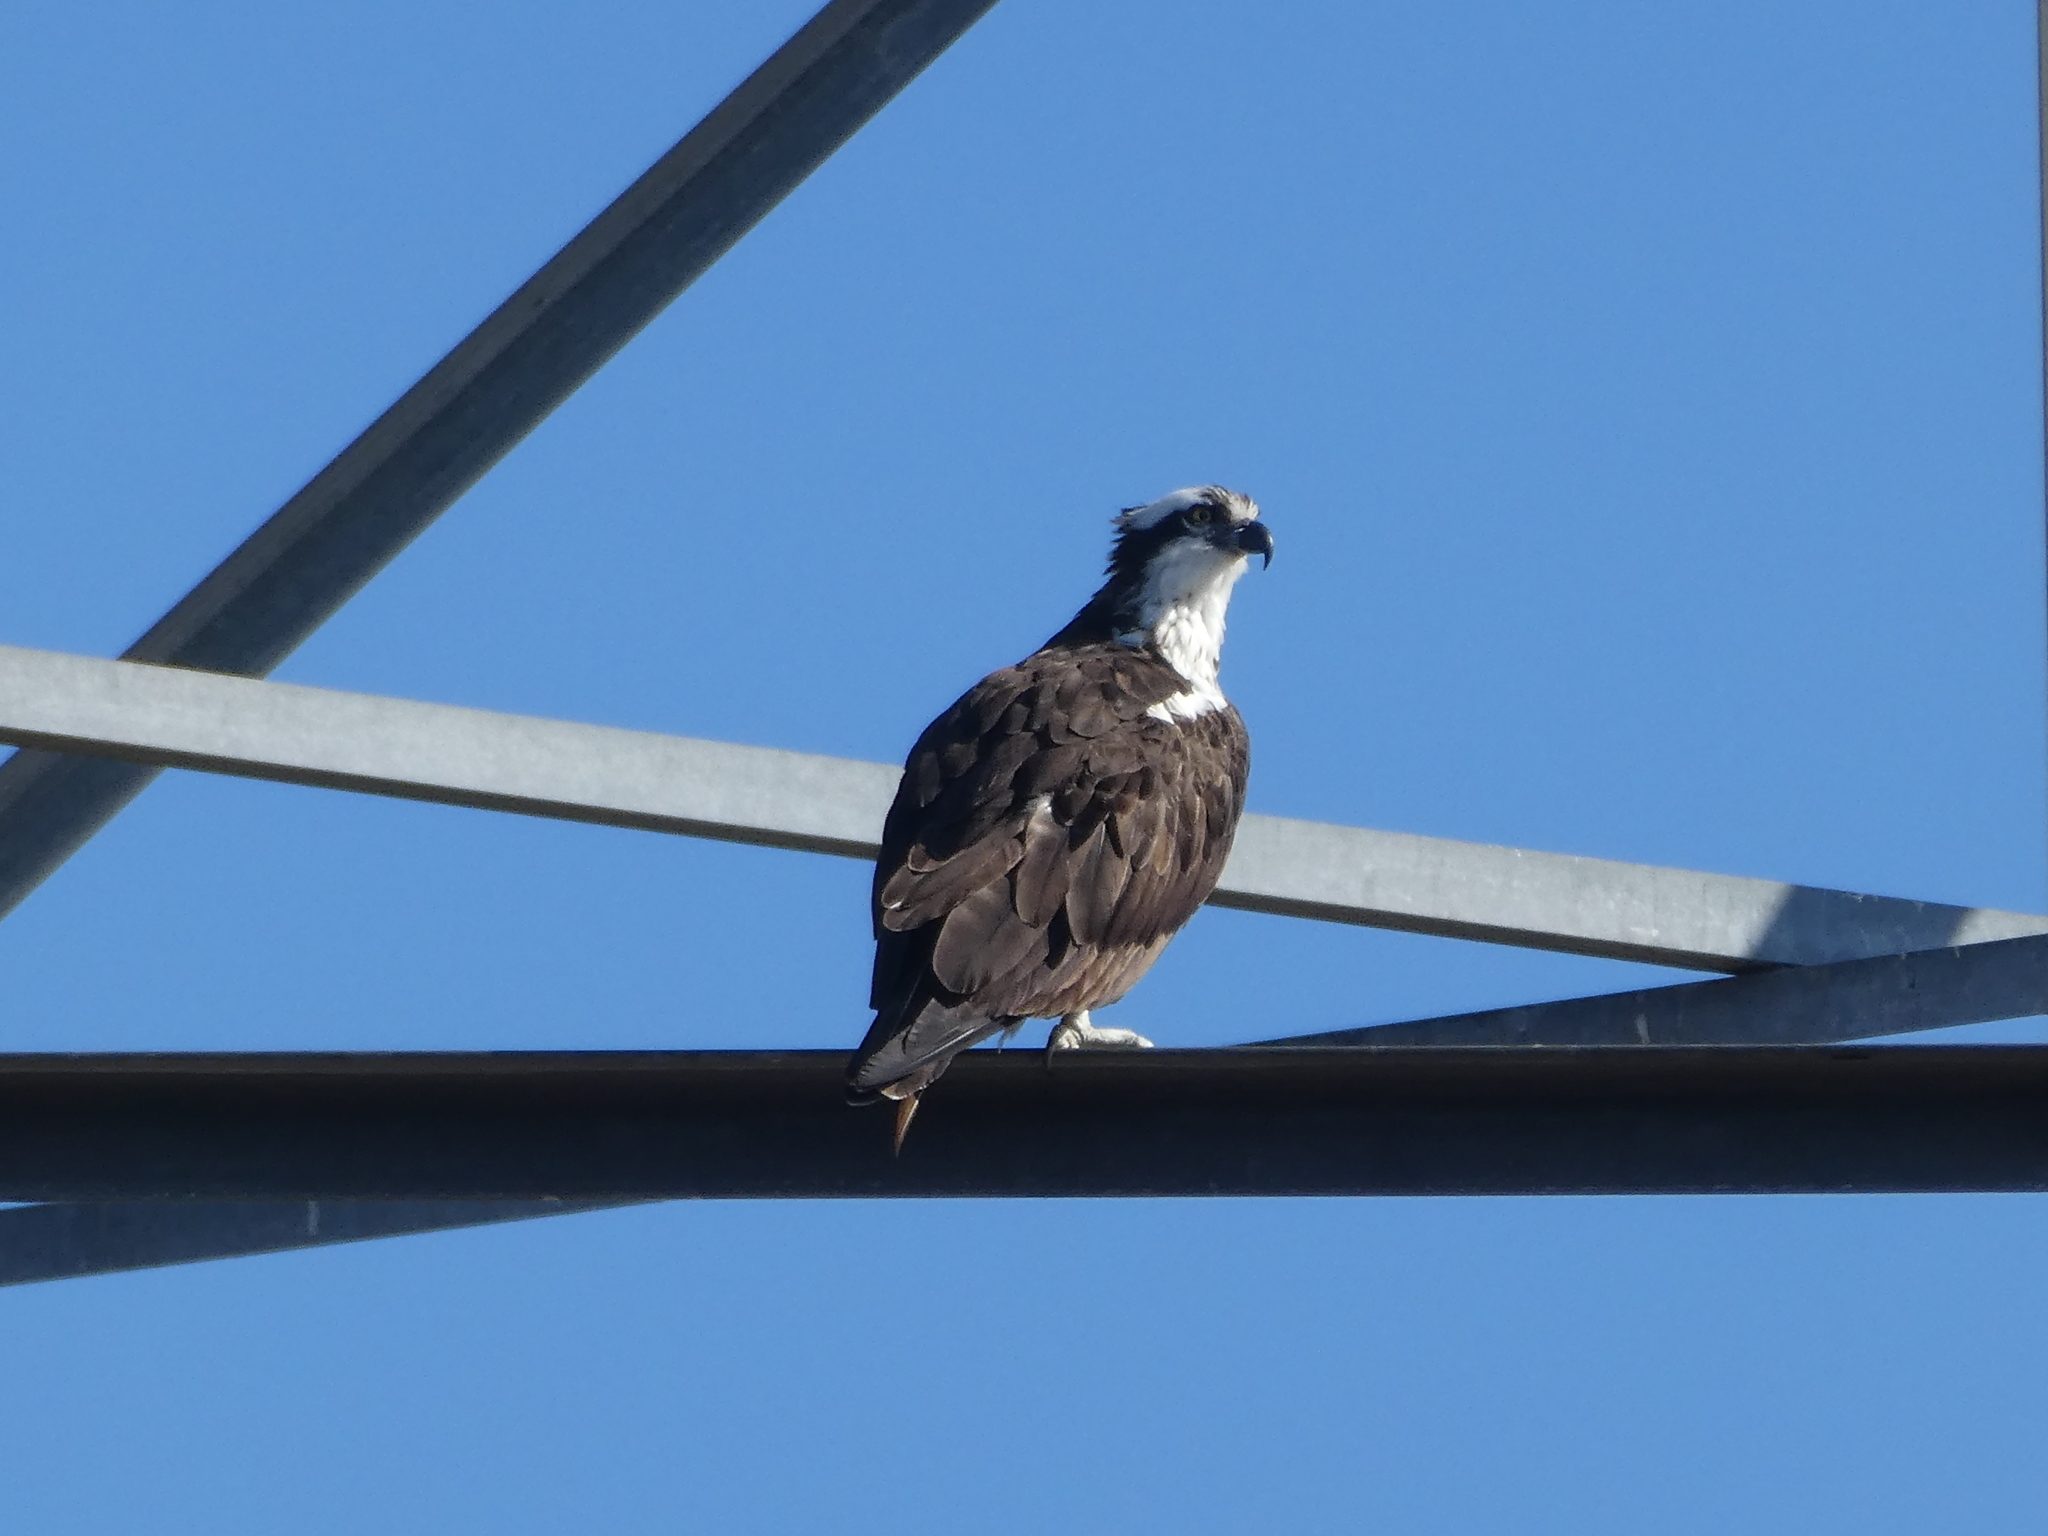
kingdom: Animalia
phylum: Chordata
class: Aves
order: Accipitriformes
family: Pandionidae
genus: Pandion
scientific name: Pandion haliaetus
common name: Osprey
